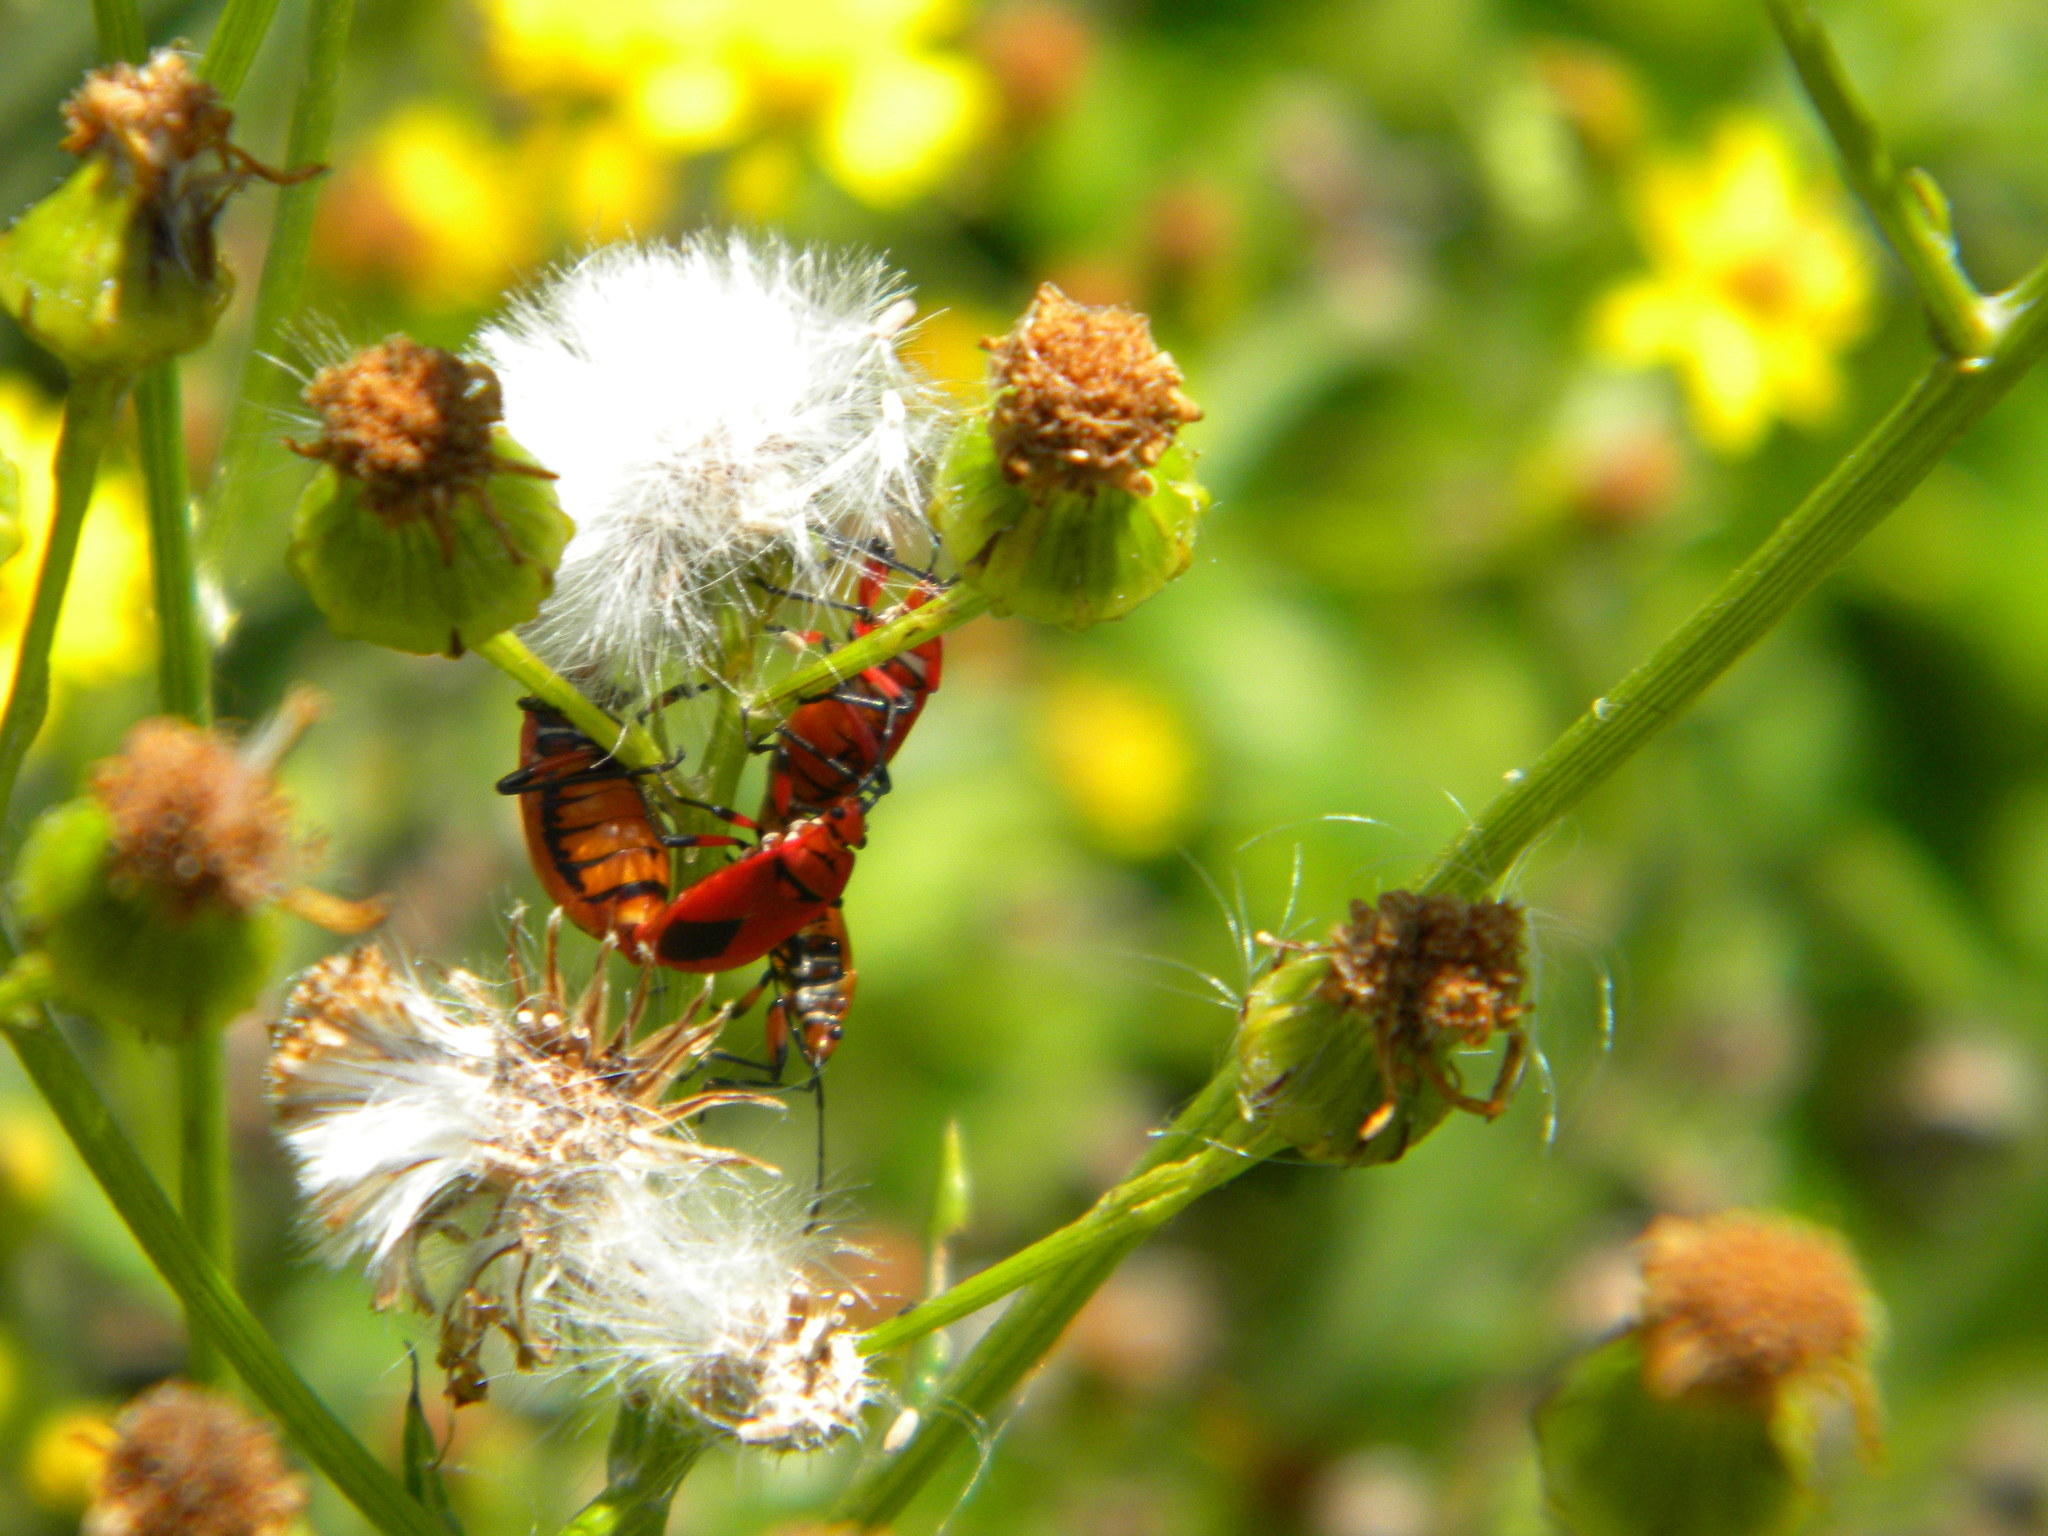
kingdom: Animalia
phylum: Arthropoda
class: Insecta
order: Hemiptera
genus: Cenaeus
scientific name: Cenaeus
